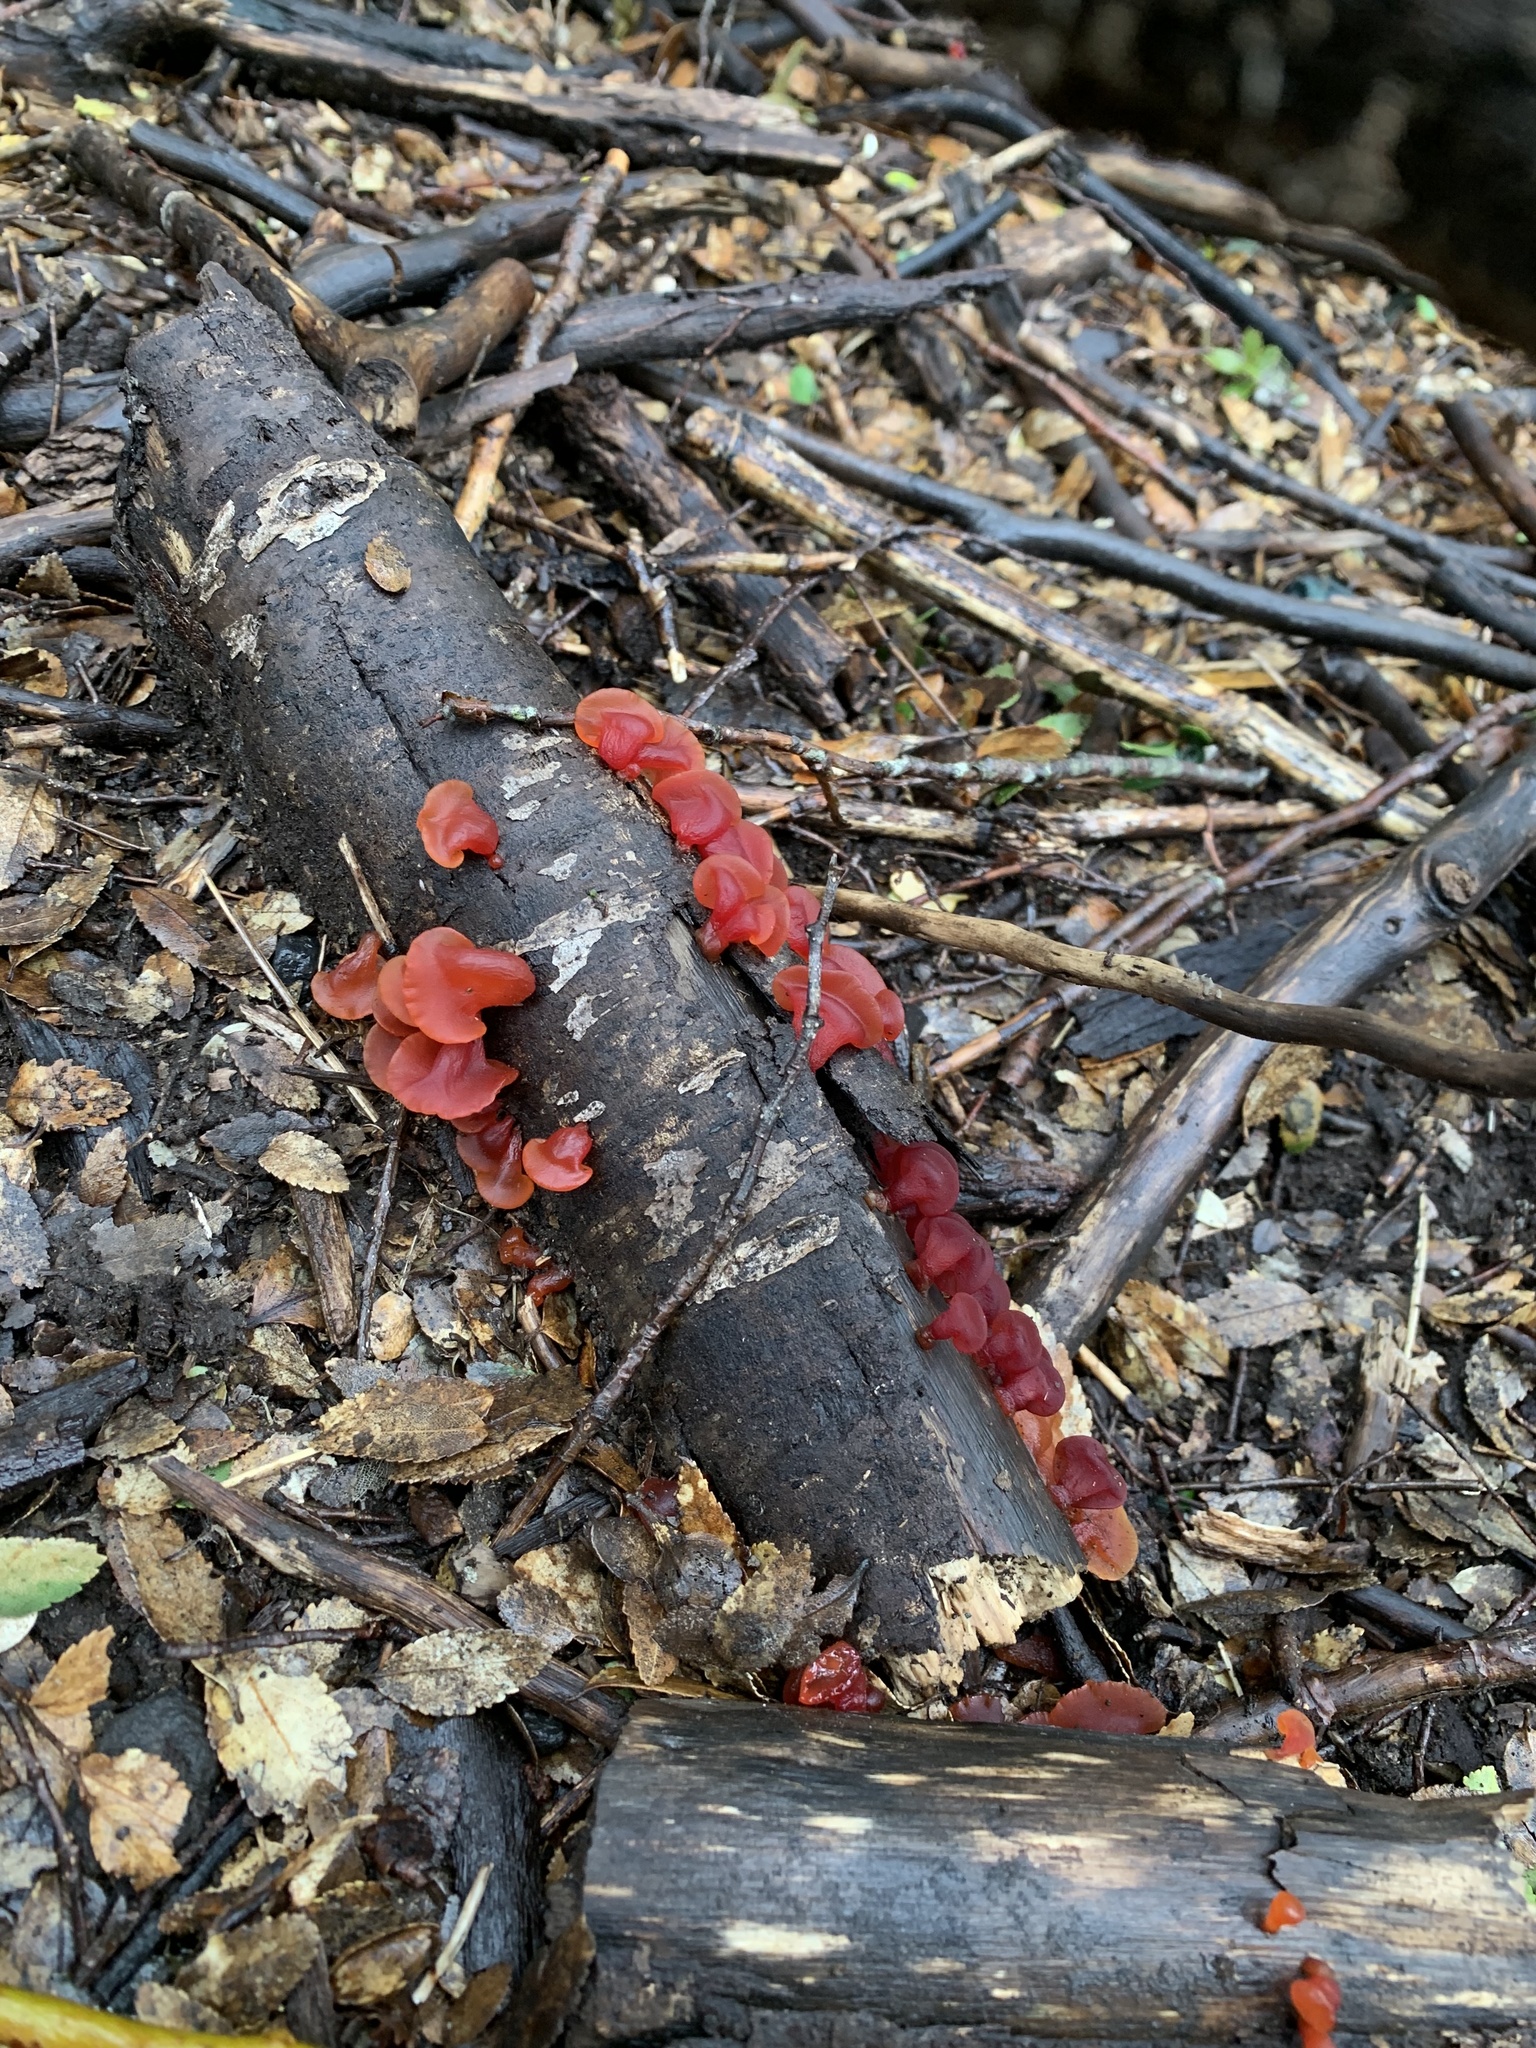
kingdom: Fungi
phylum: Basidiomycota
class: Dacrymycetes
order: Dacrymycetales
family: Dacrymycetaceae
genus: Guepiniopsis
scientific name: Guepiniopsis alpina
